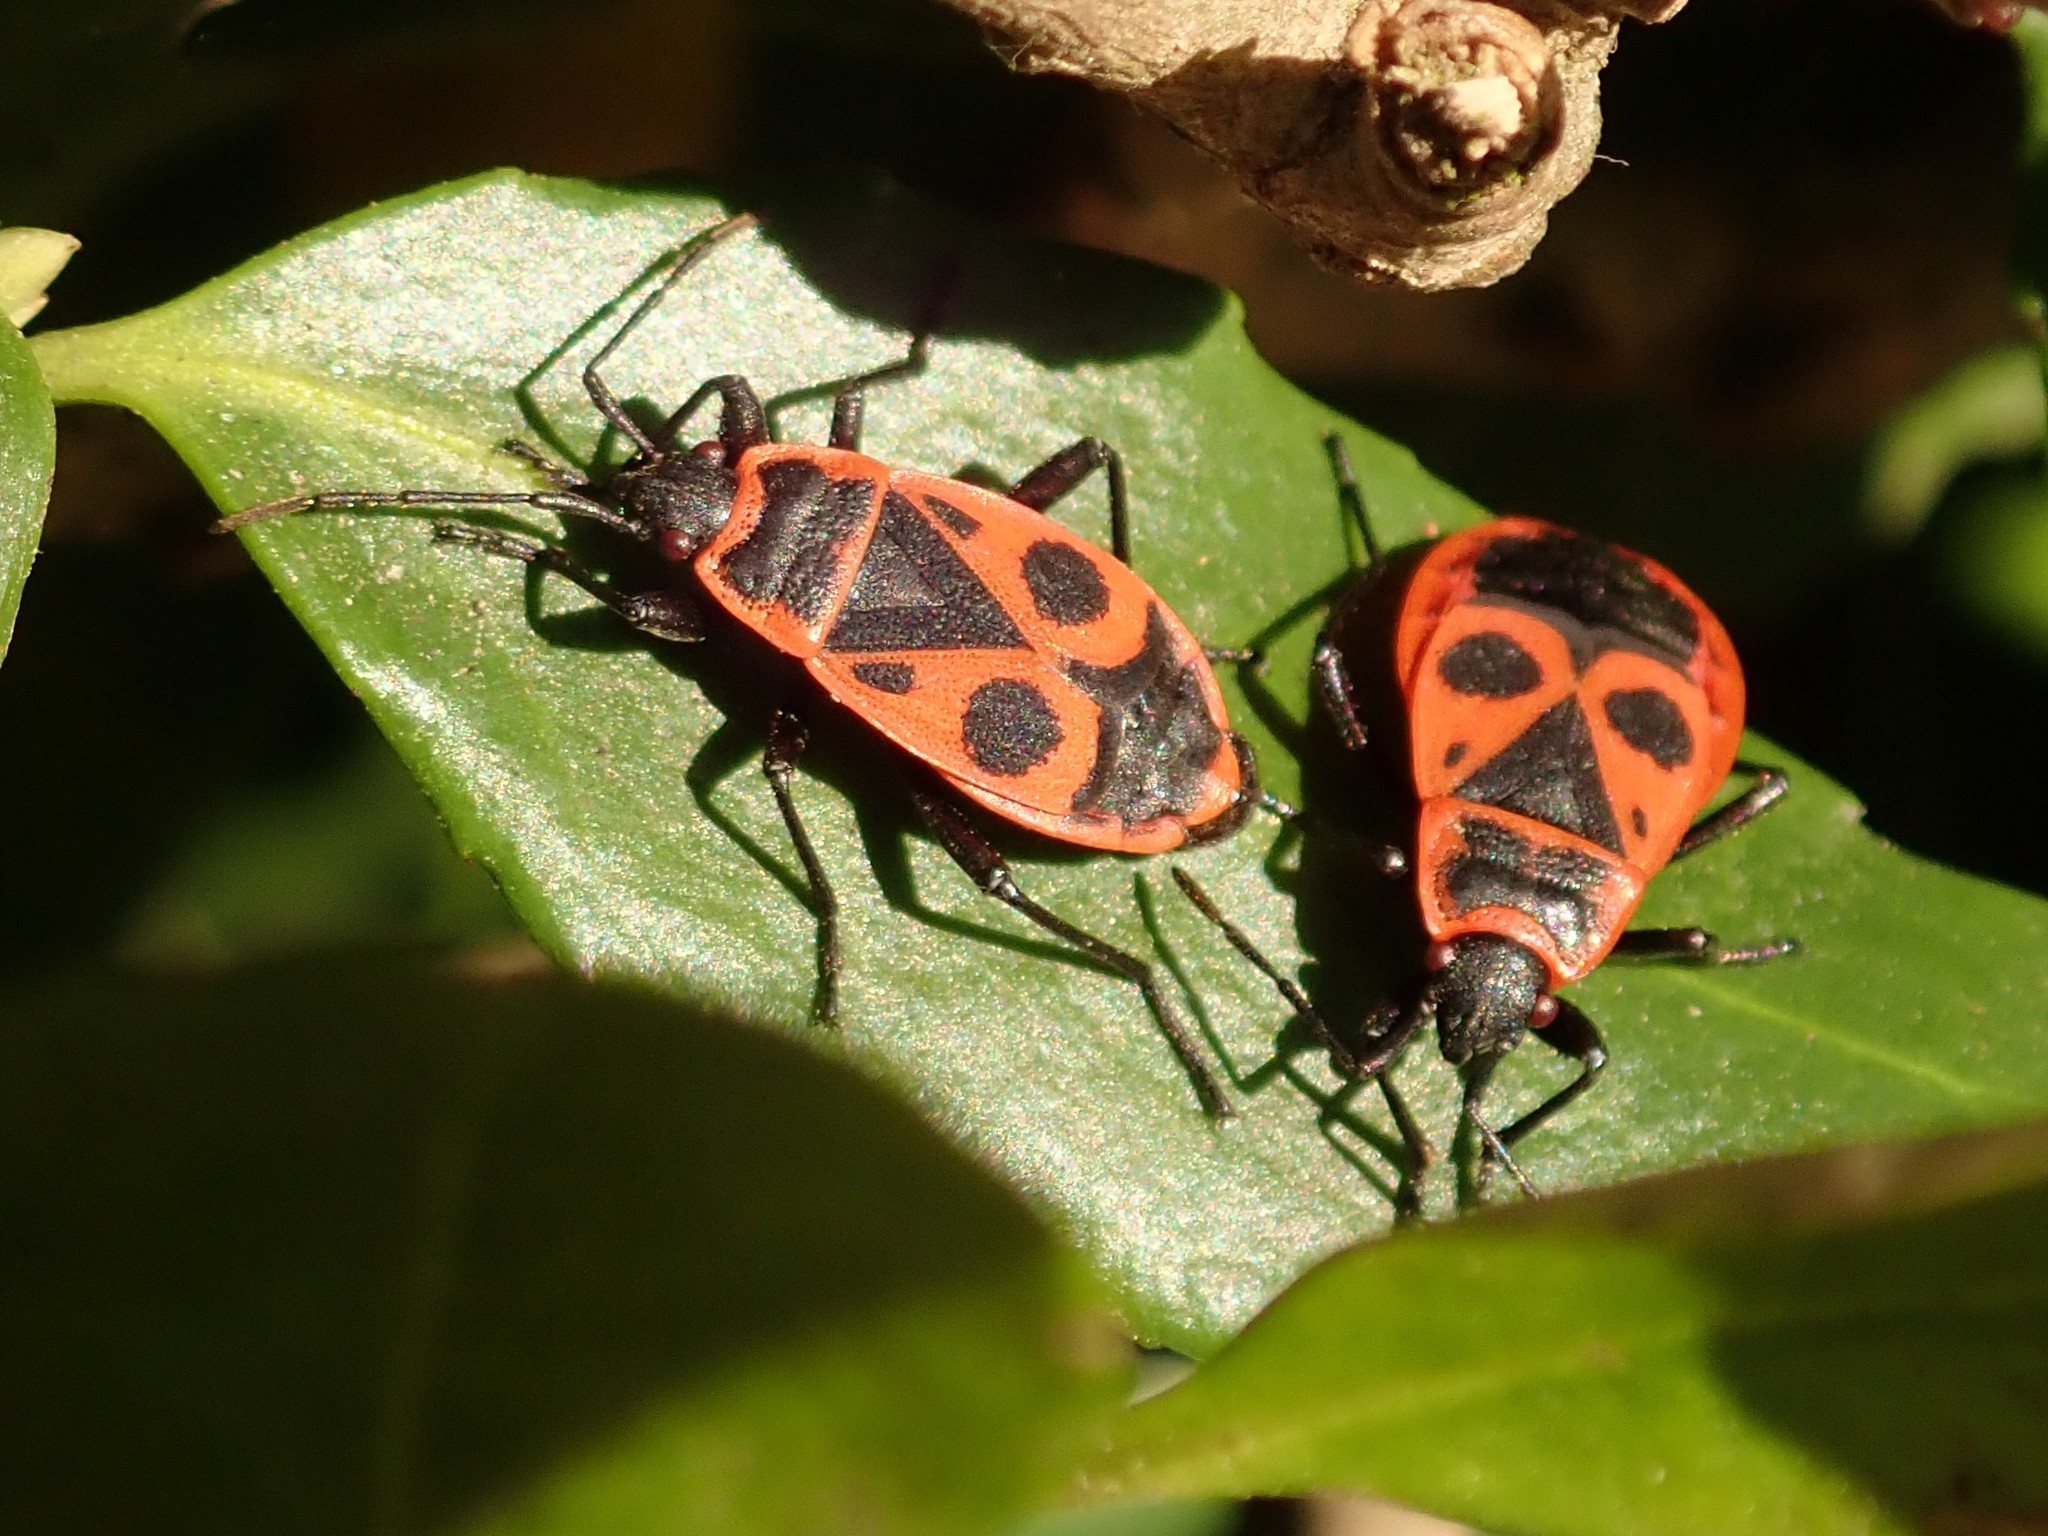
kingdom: Animalia
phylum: Arthropoda
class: Insecta
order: Hemiptera
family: Pyrrhocoridae
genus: Pyrrhocoris
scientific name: Pyrrhocoris apterus
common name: Firebug
